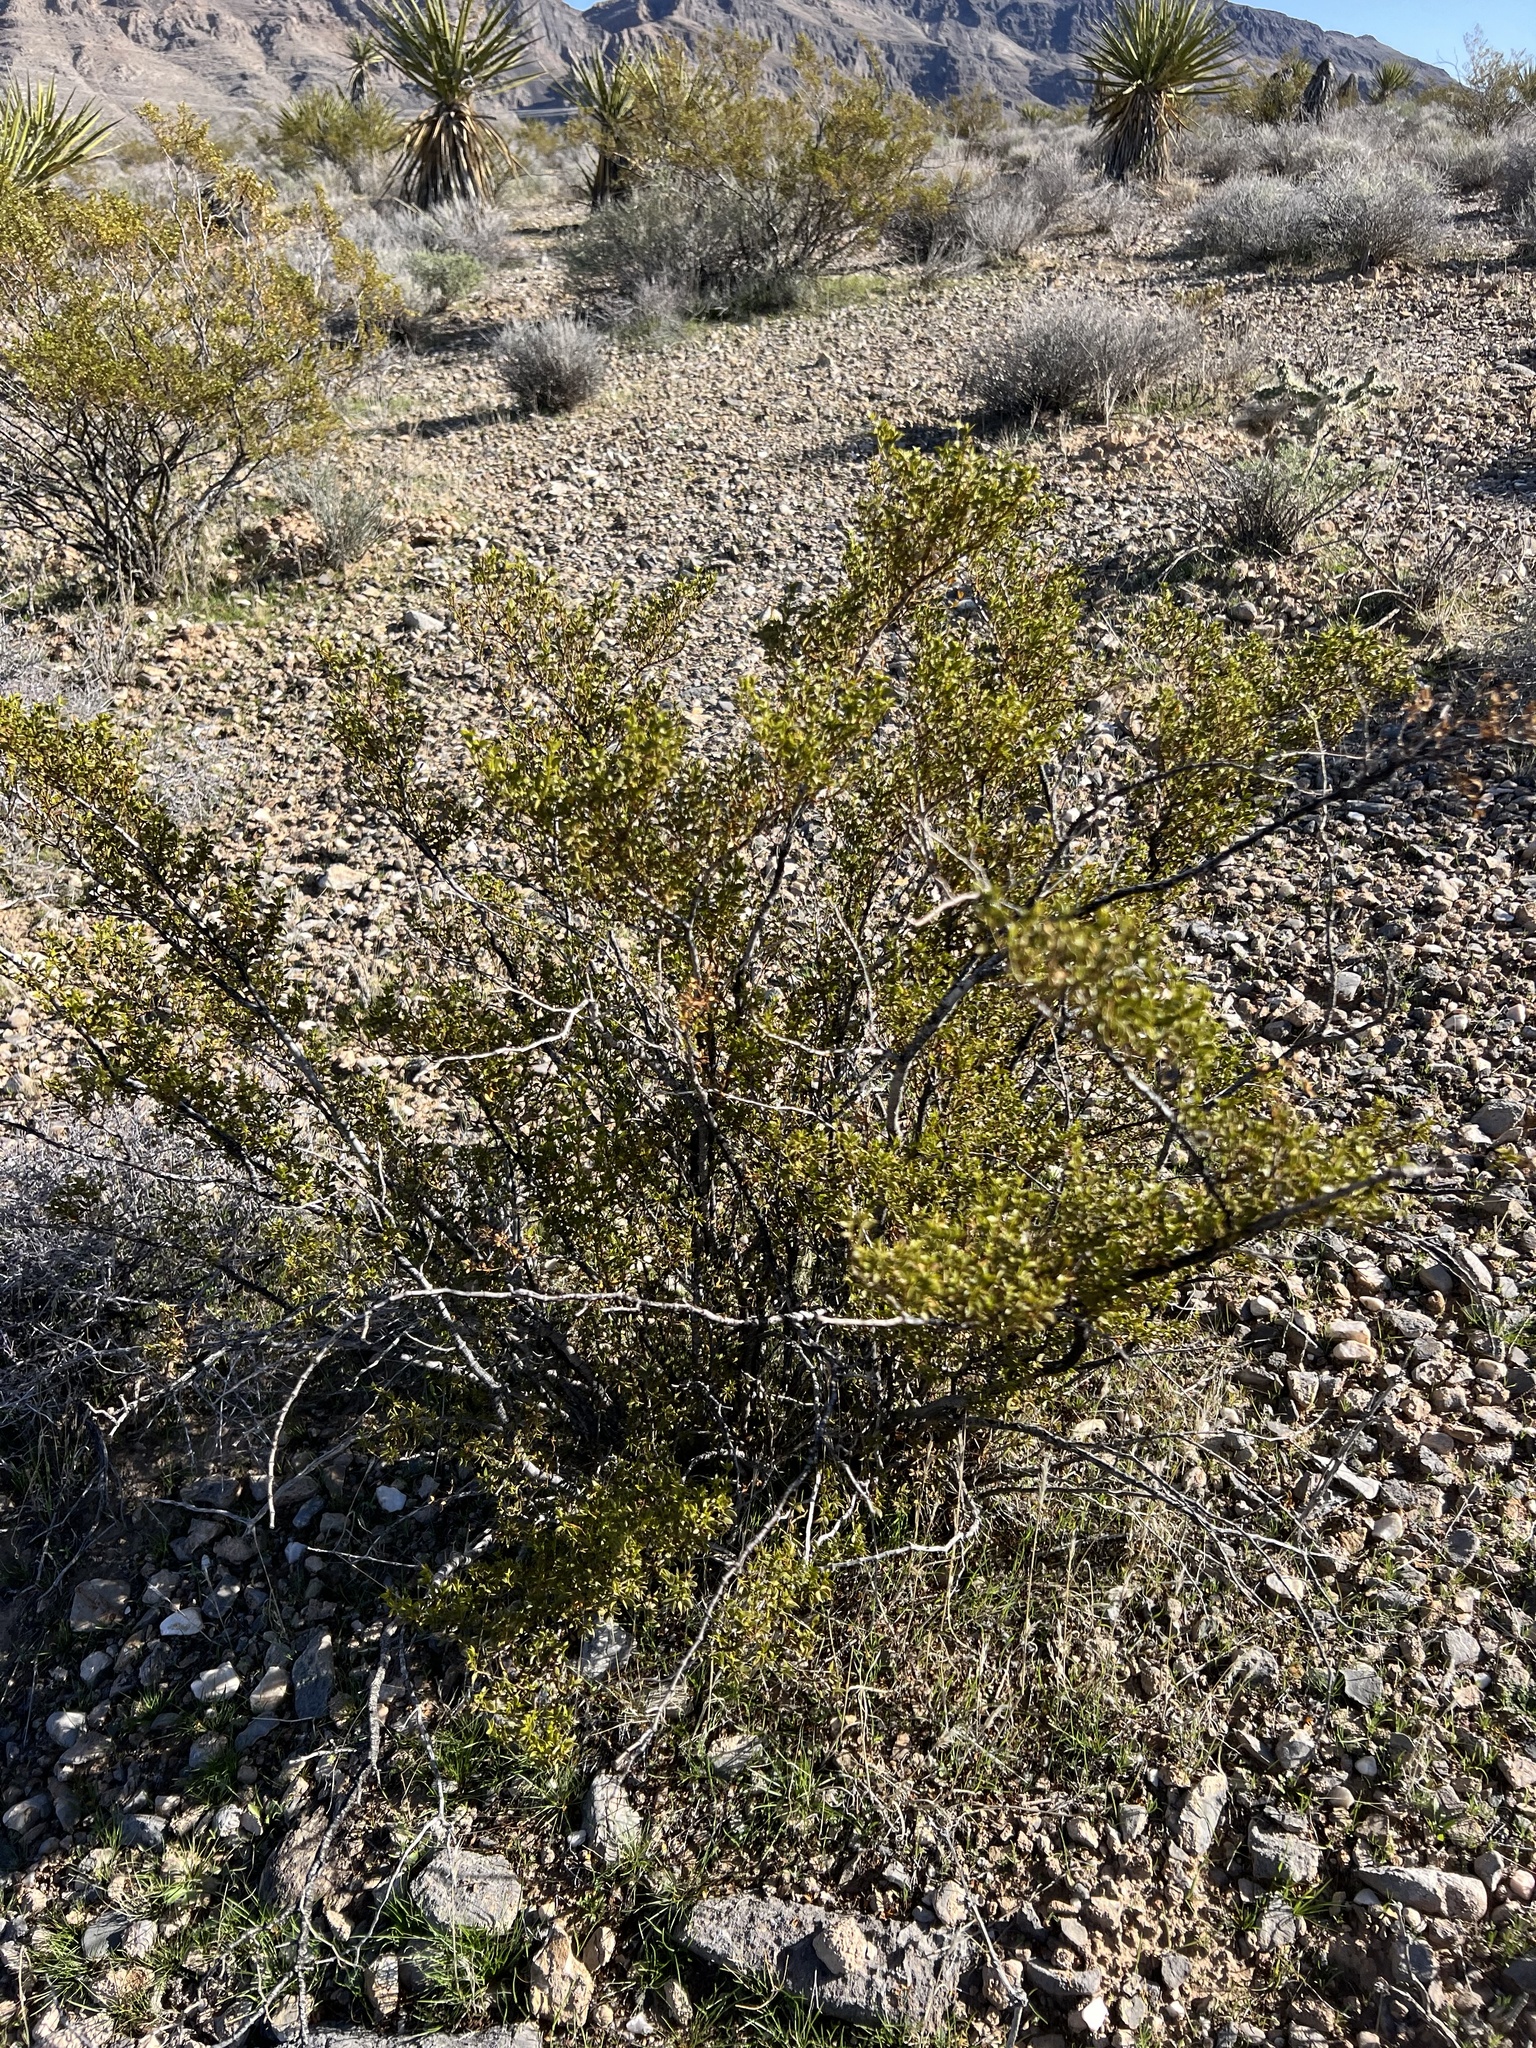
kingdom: Plantae
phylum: Tracheophyta
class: Magnoliopsida
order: Zygophyllales
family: Zygophyllaceae
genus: Larrea
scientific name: Larrea tridentata
